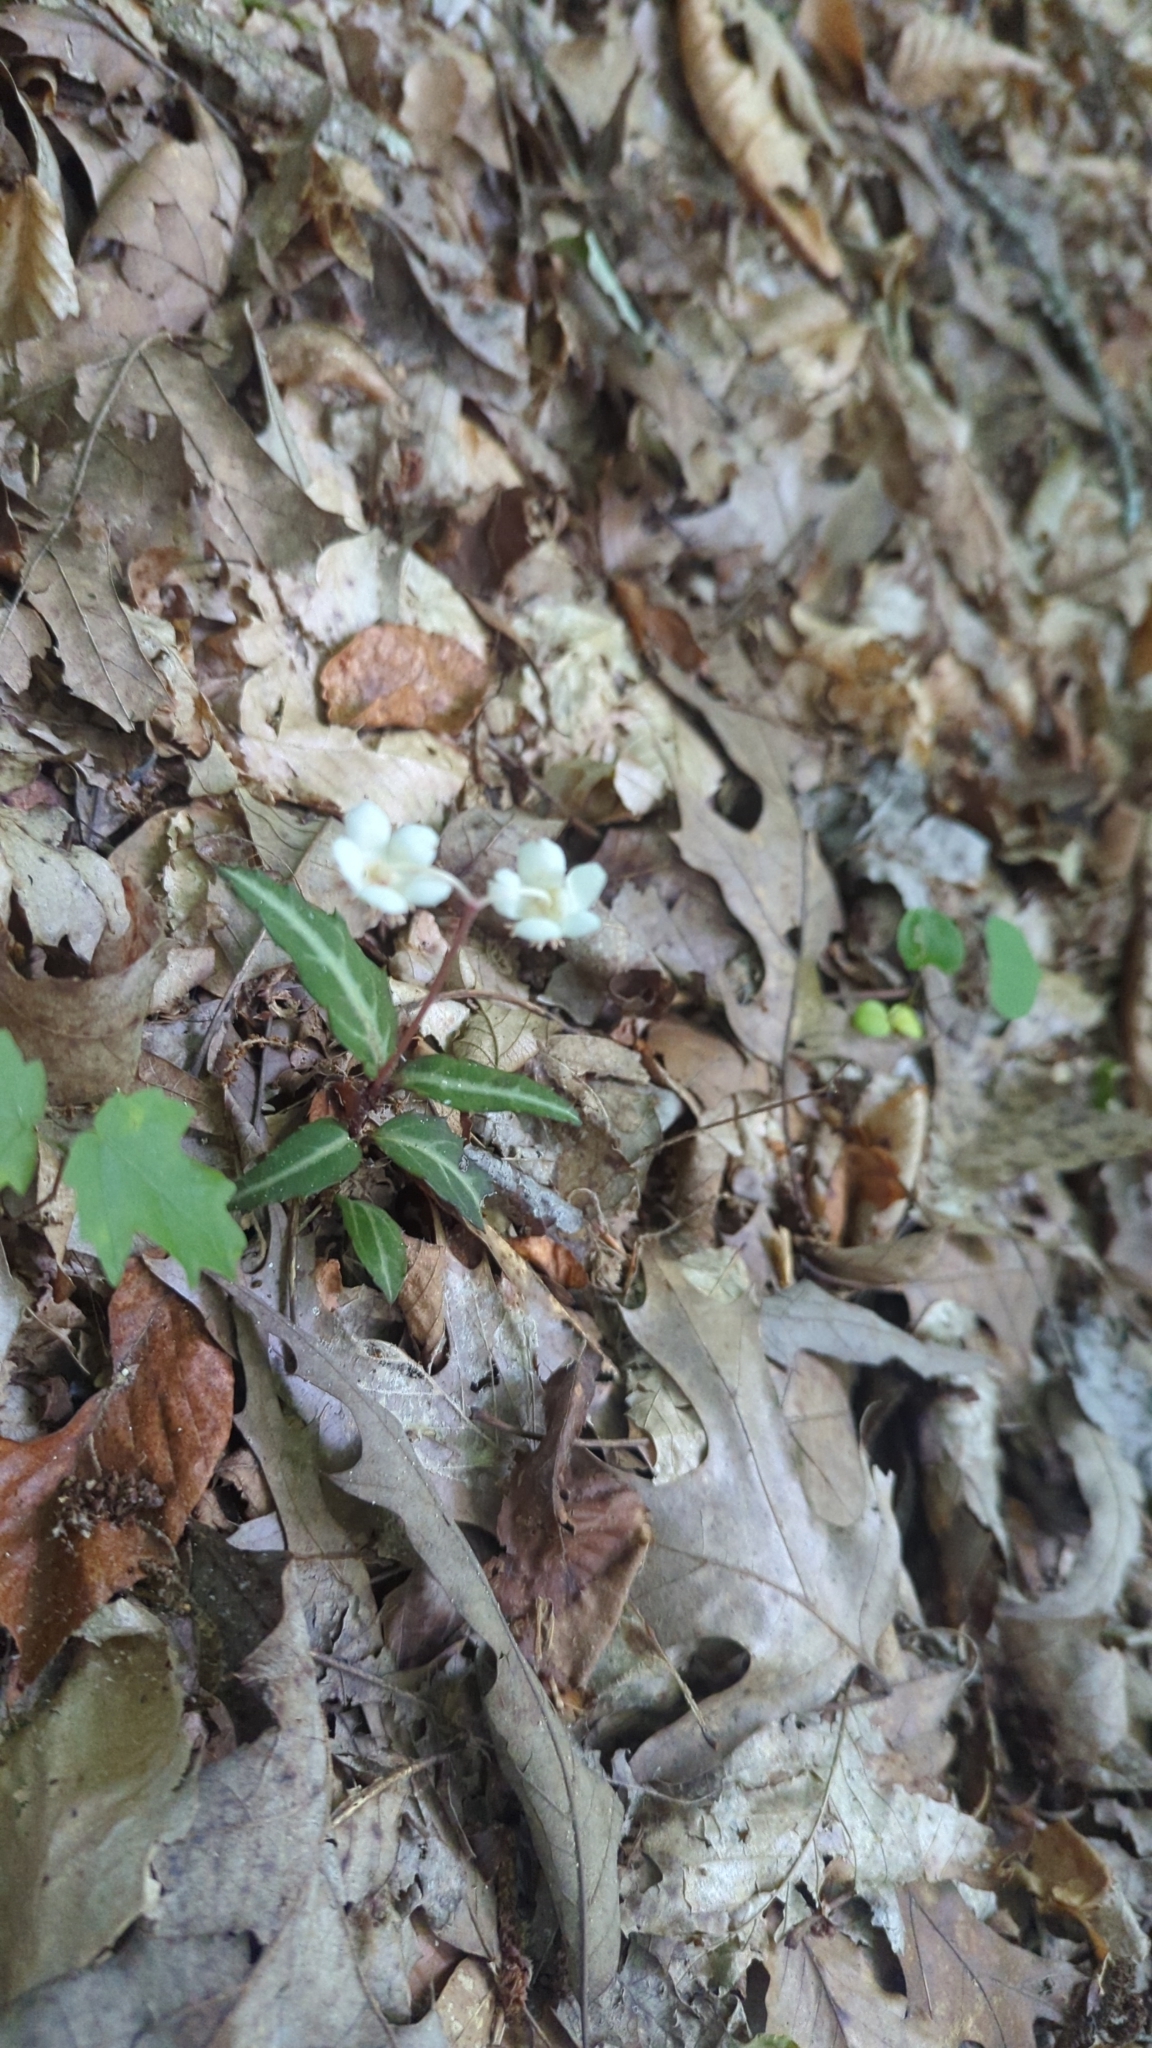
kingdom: Plantae
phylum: Tracheophyta
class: Magnoliopsida
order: Ericales
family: Ericaceae
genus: Chimaphila
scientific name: Chimaphila maculata
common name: Spotted pipsissewa
